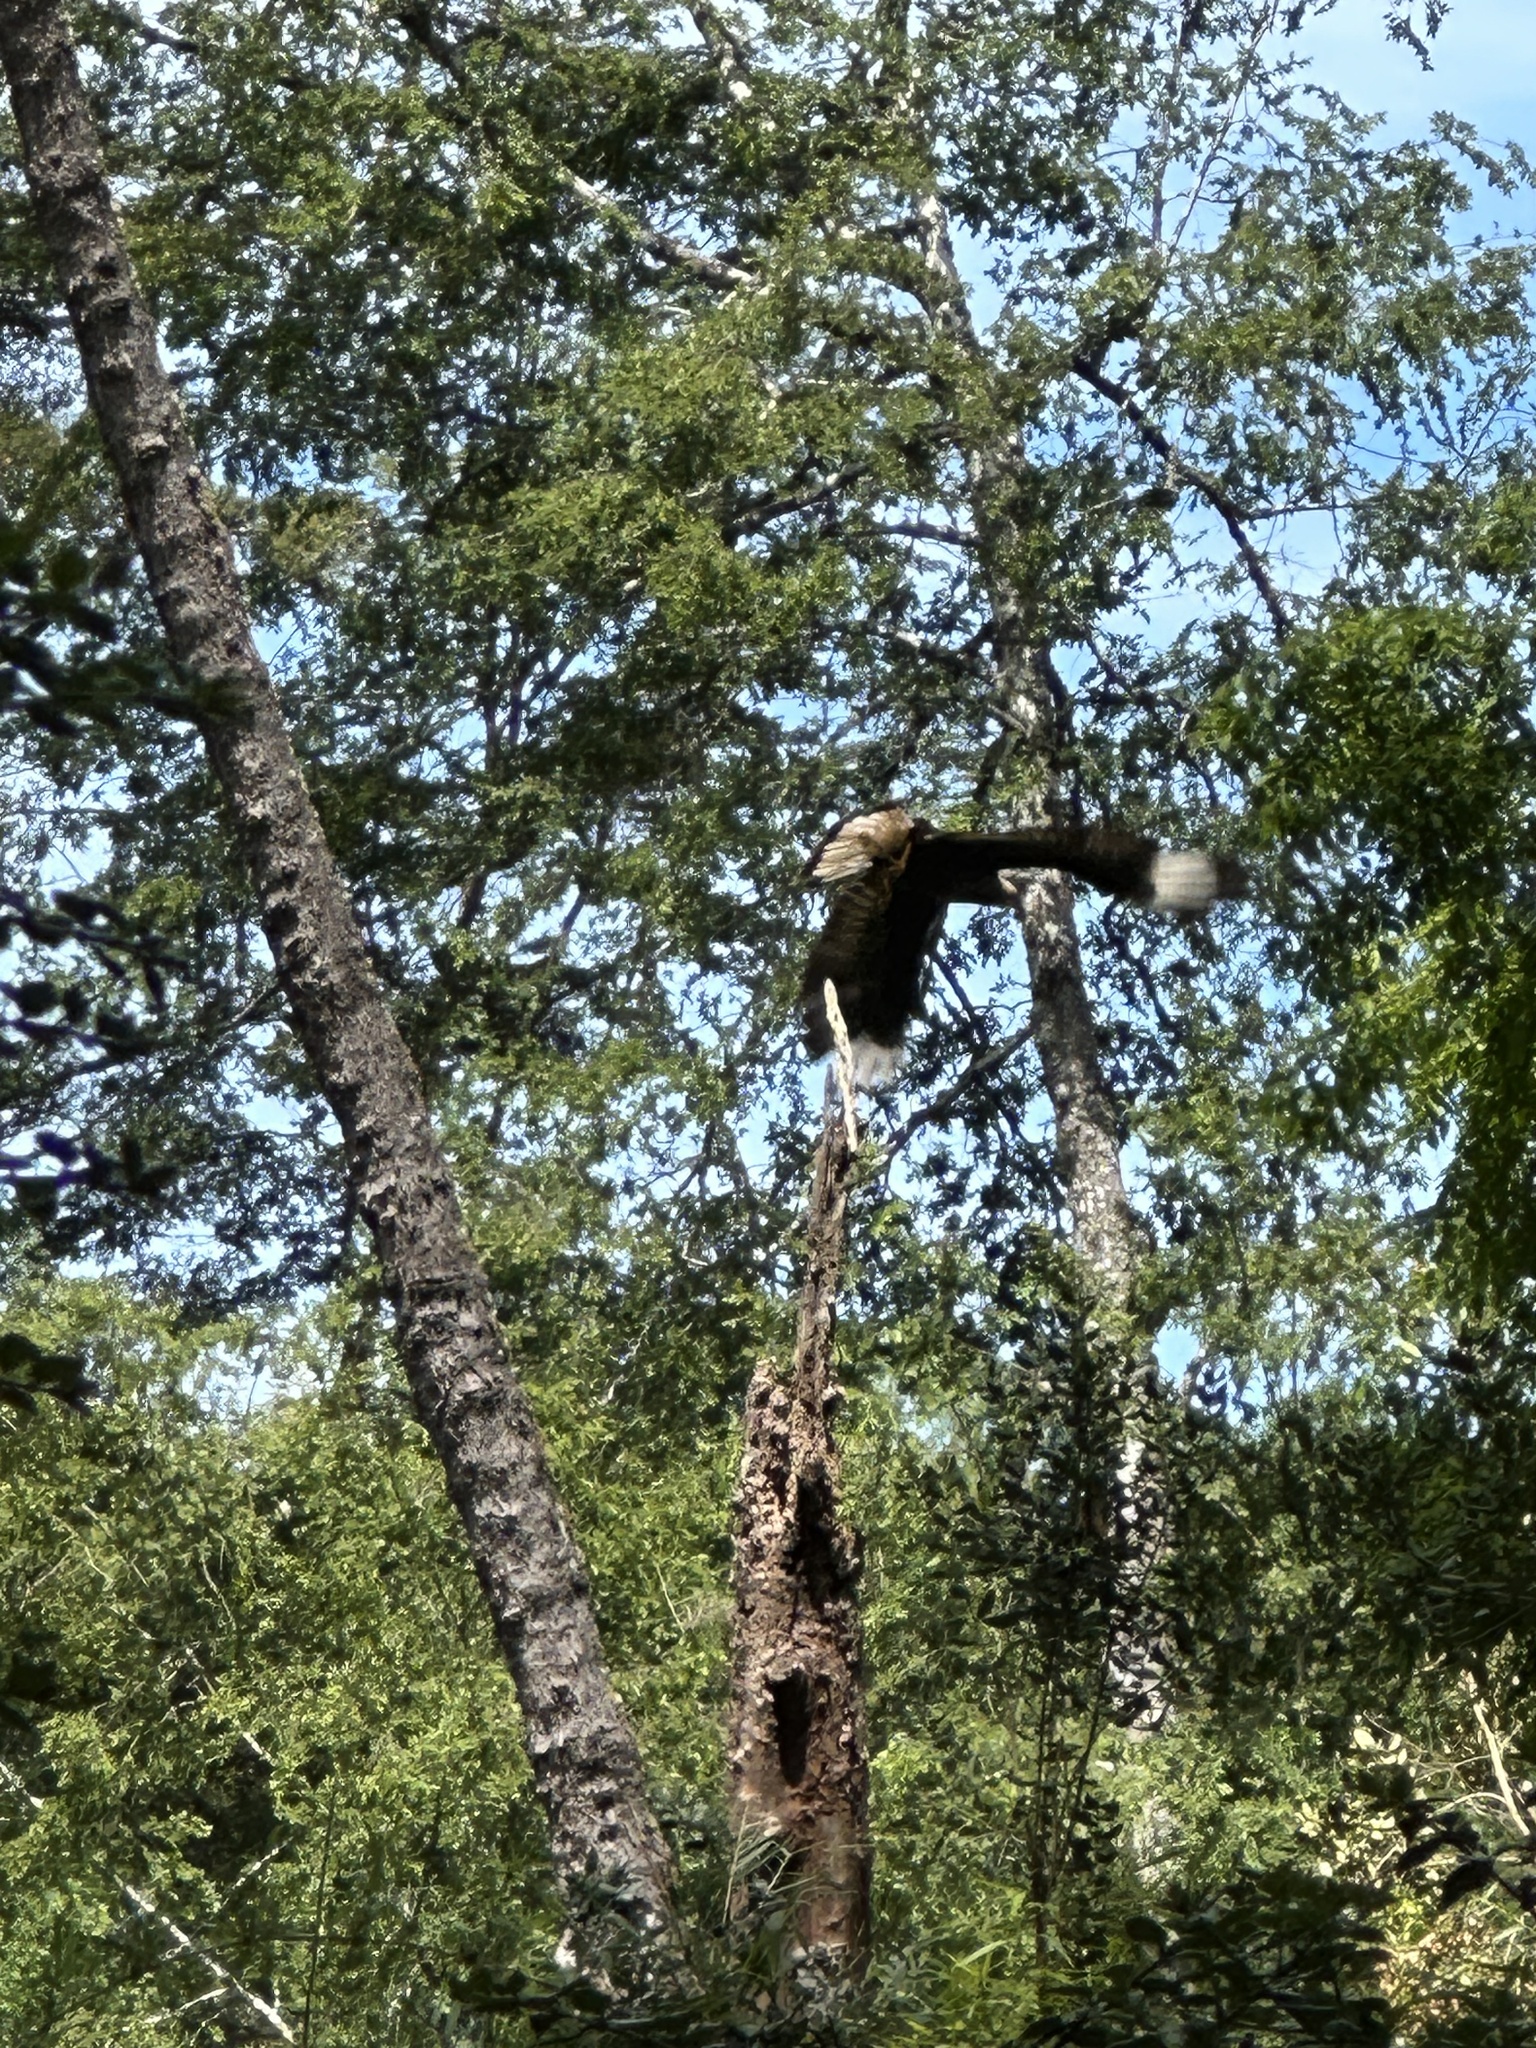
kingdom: Animalia
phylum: Chordata
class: Aves
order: Falconiformes
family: Falconidae
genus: Caracara
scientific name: Caracara plancus
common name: Southern caracara
